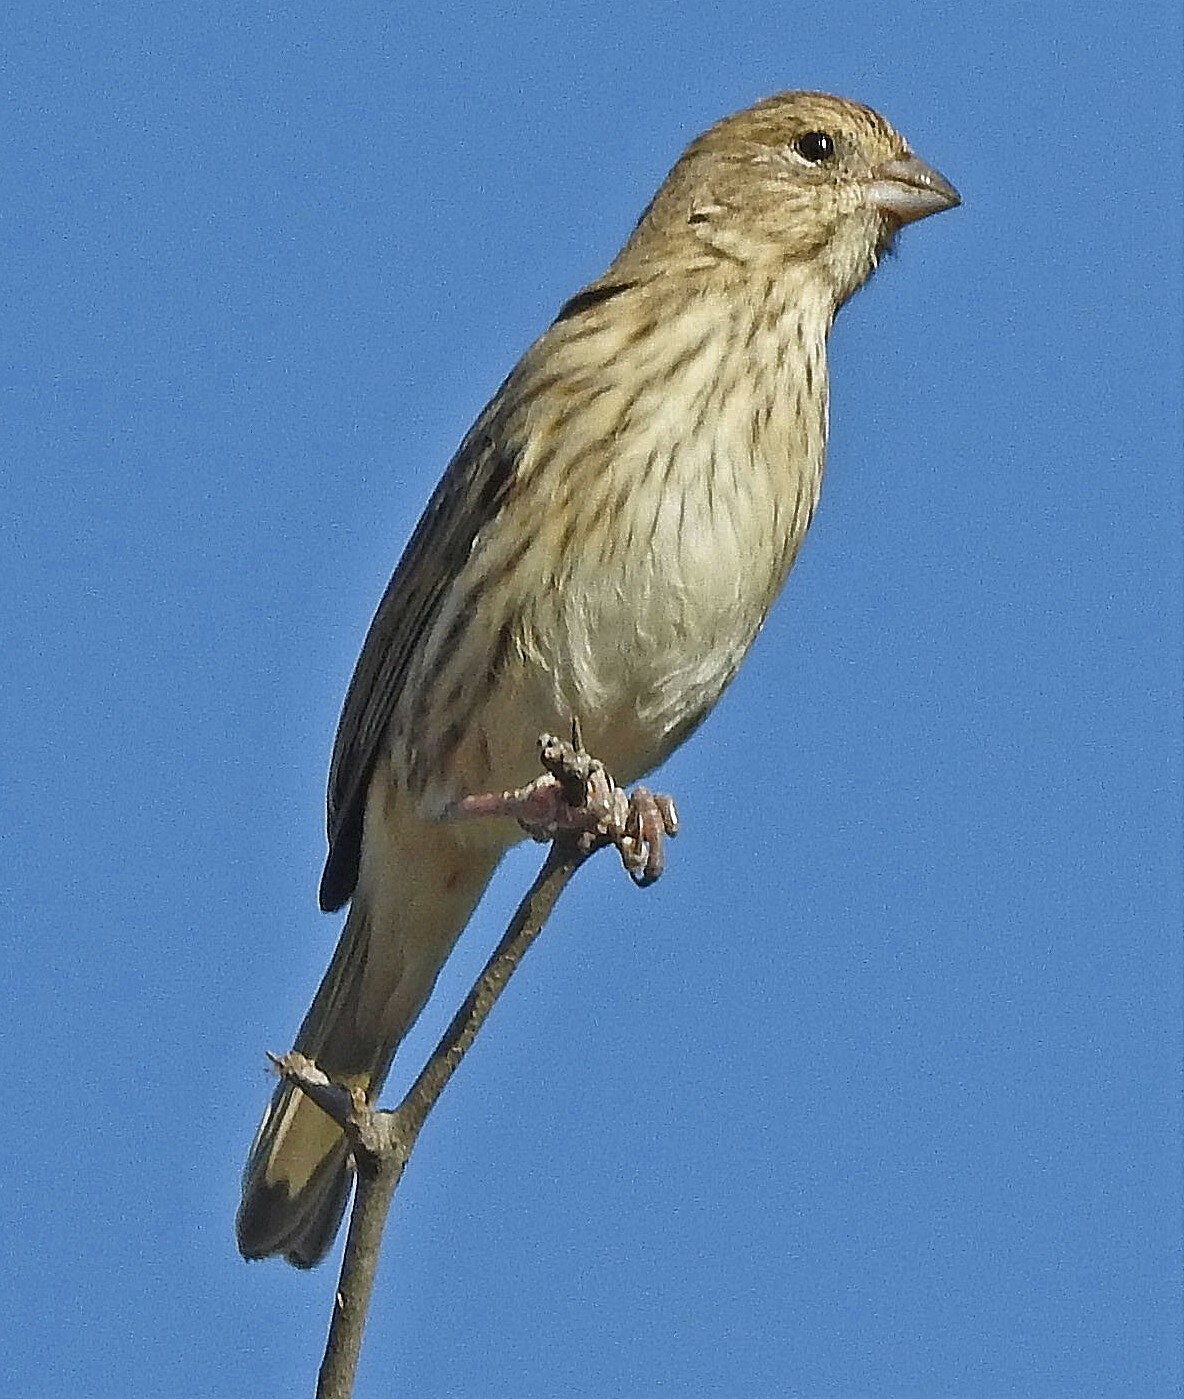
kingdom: Animalia
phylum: Chordata
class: Aves
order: Passeriformes
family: Thraupidae
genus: Sicalis
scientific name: Sicalis flaveola
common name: Saffron finch
